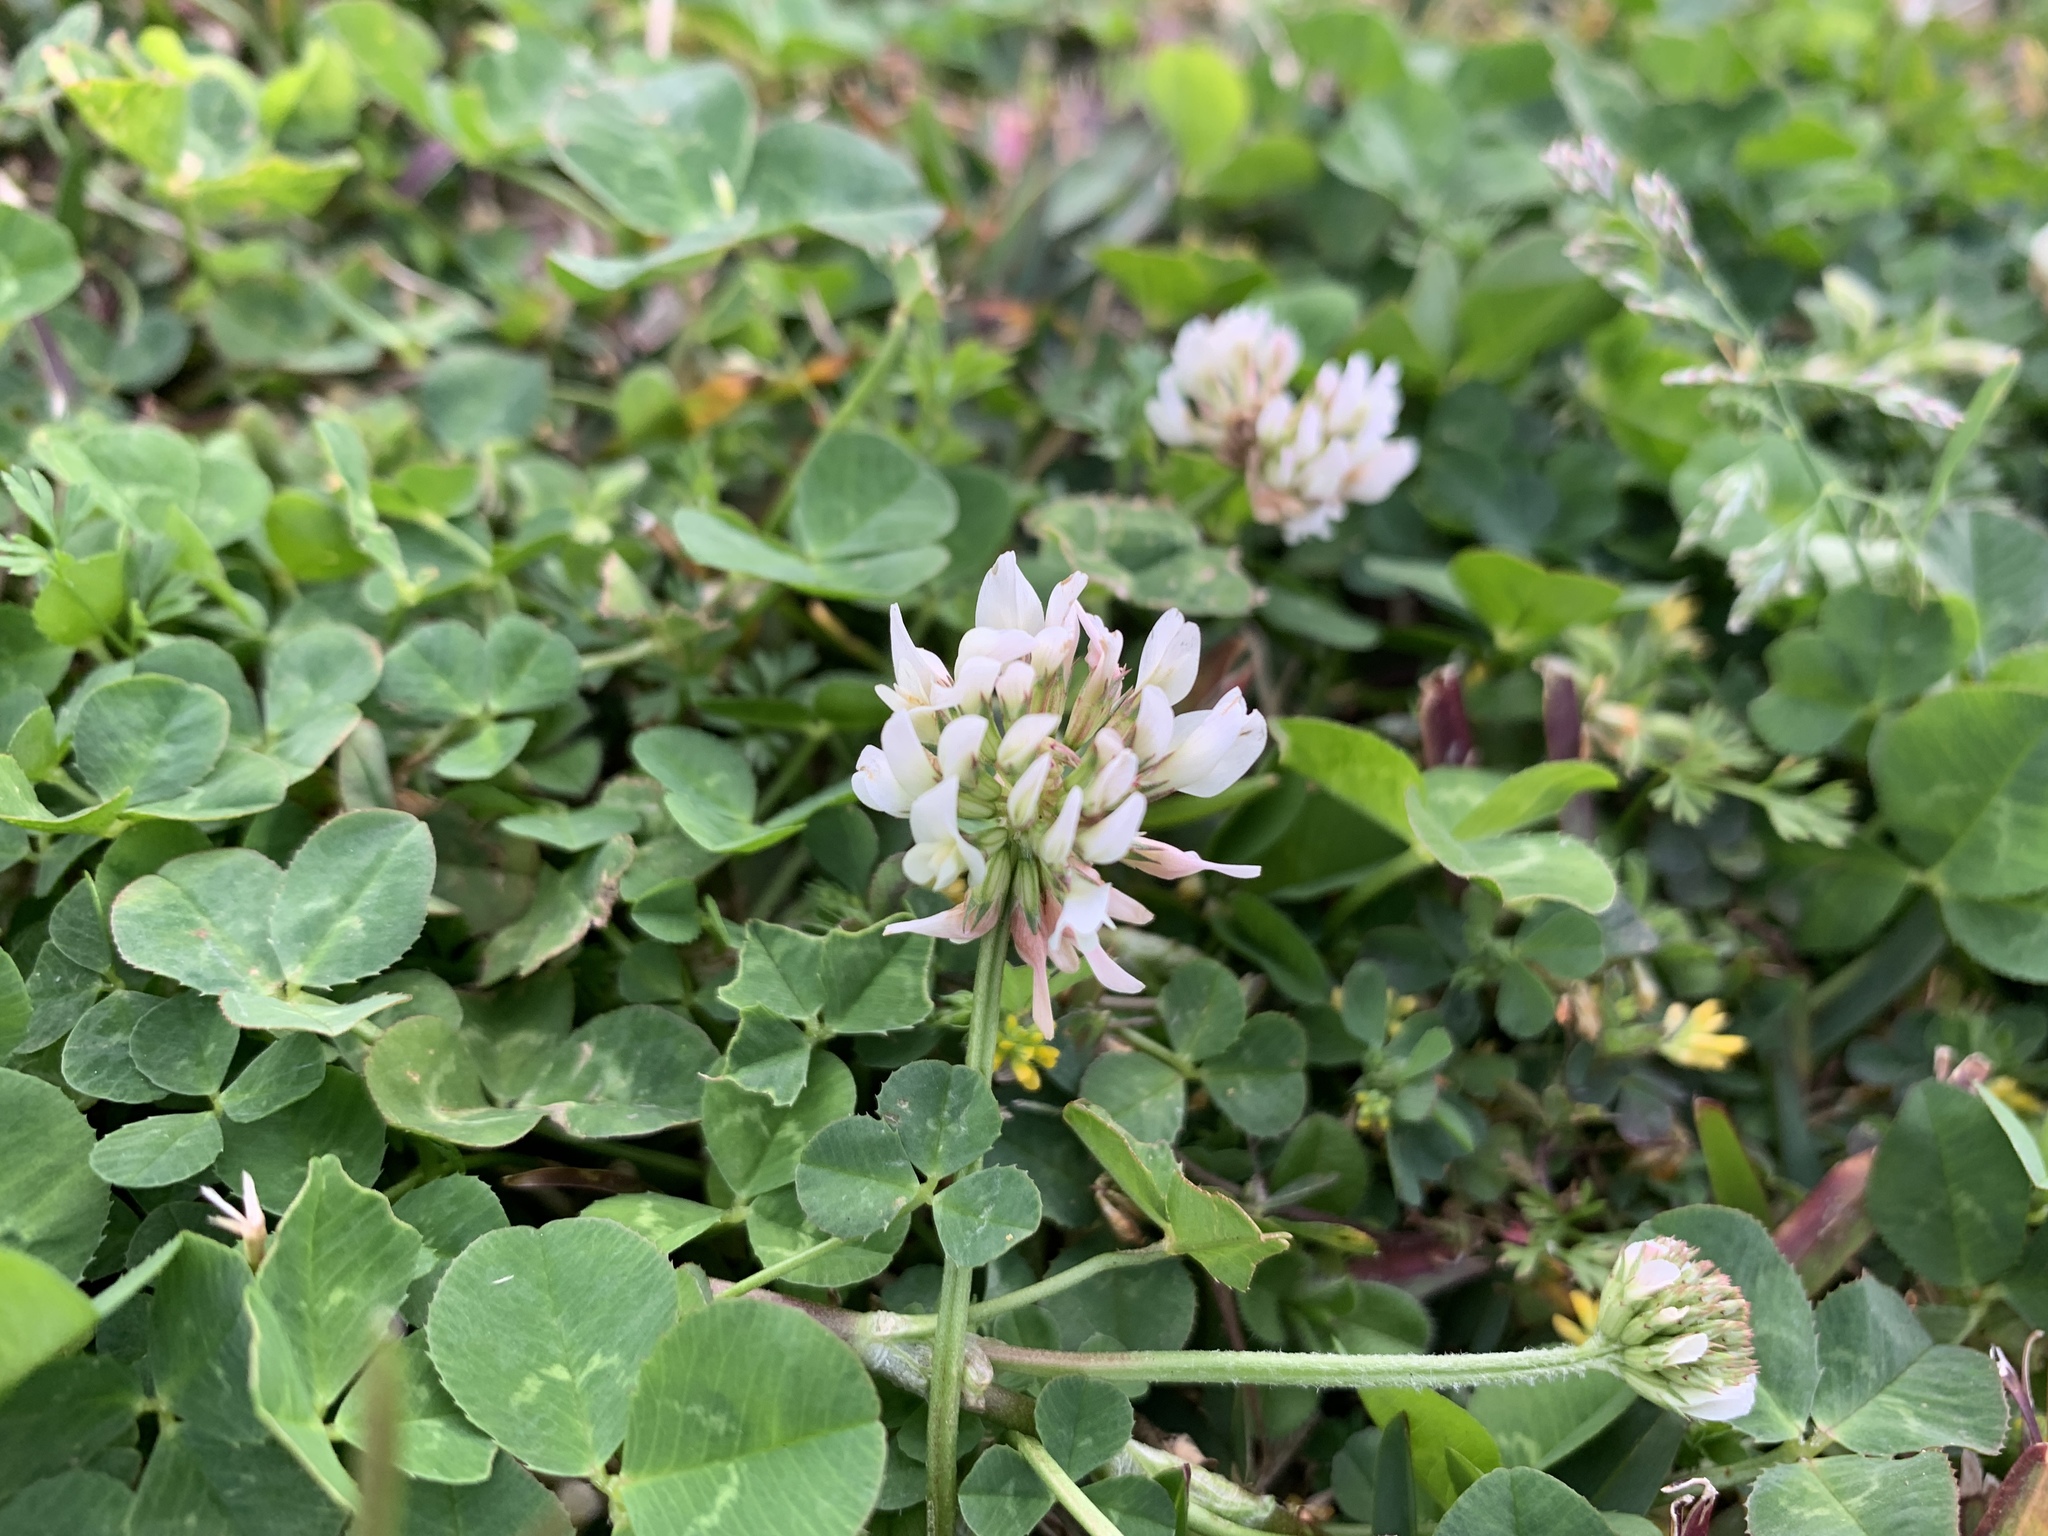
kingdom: Plantae
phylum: Tracheophyta
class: Magnoliopsida
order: Fabales
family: Fabaceae
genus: Trifolium
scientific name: Trifolium repens
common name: White clover
